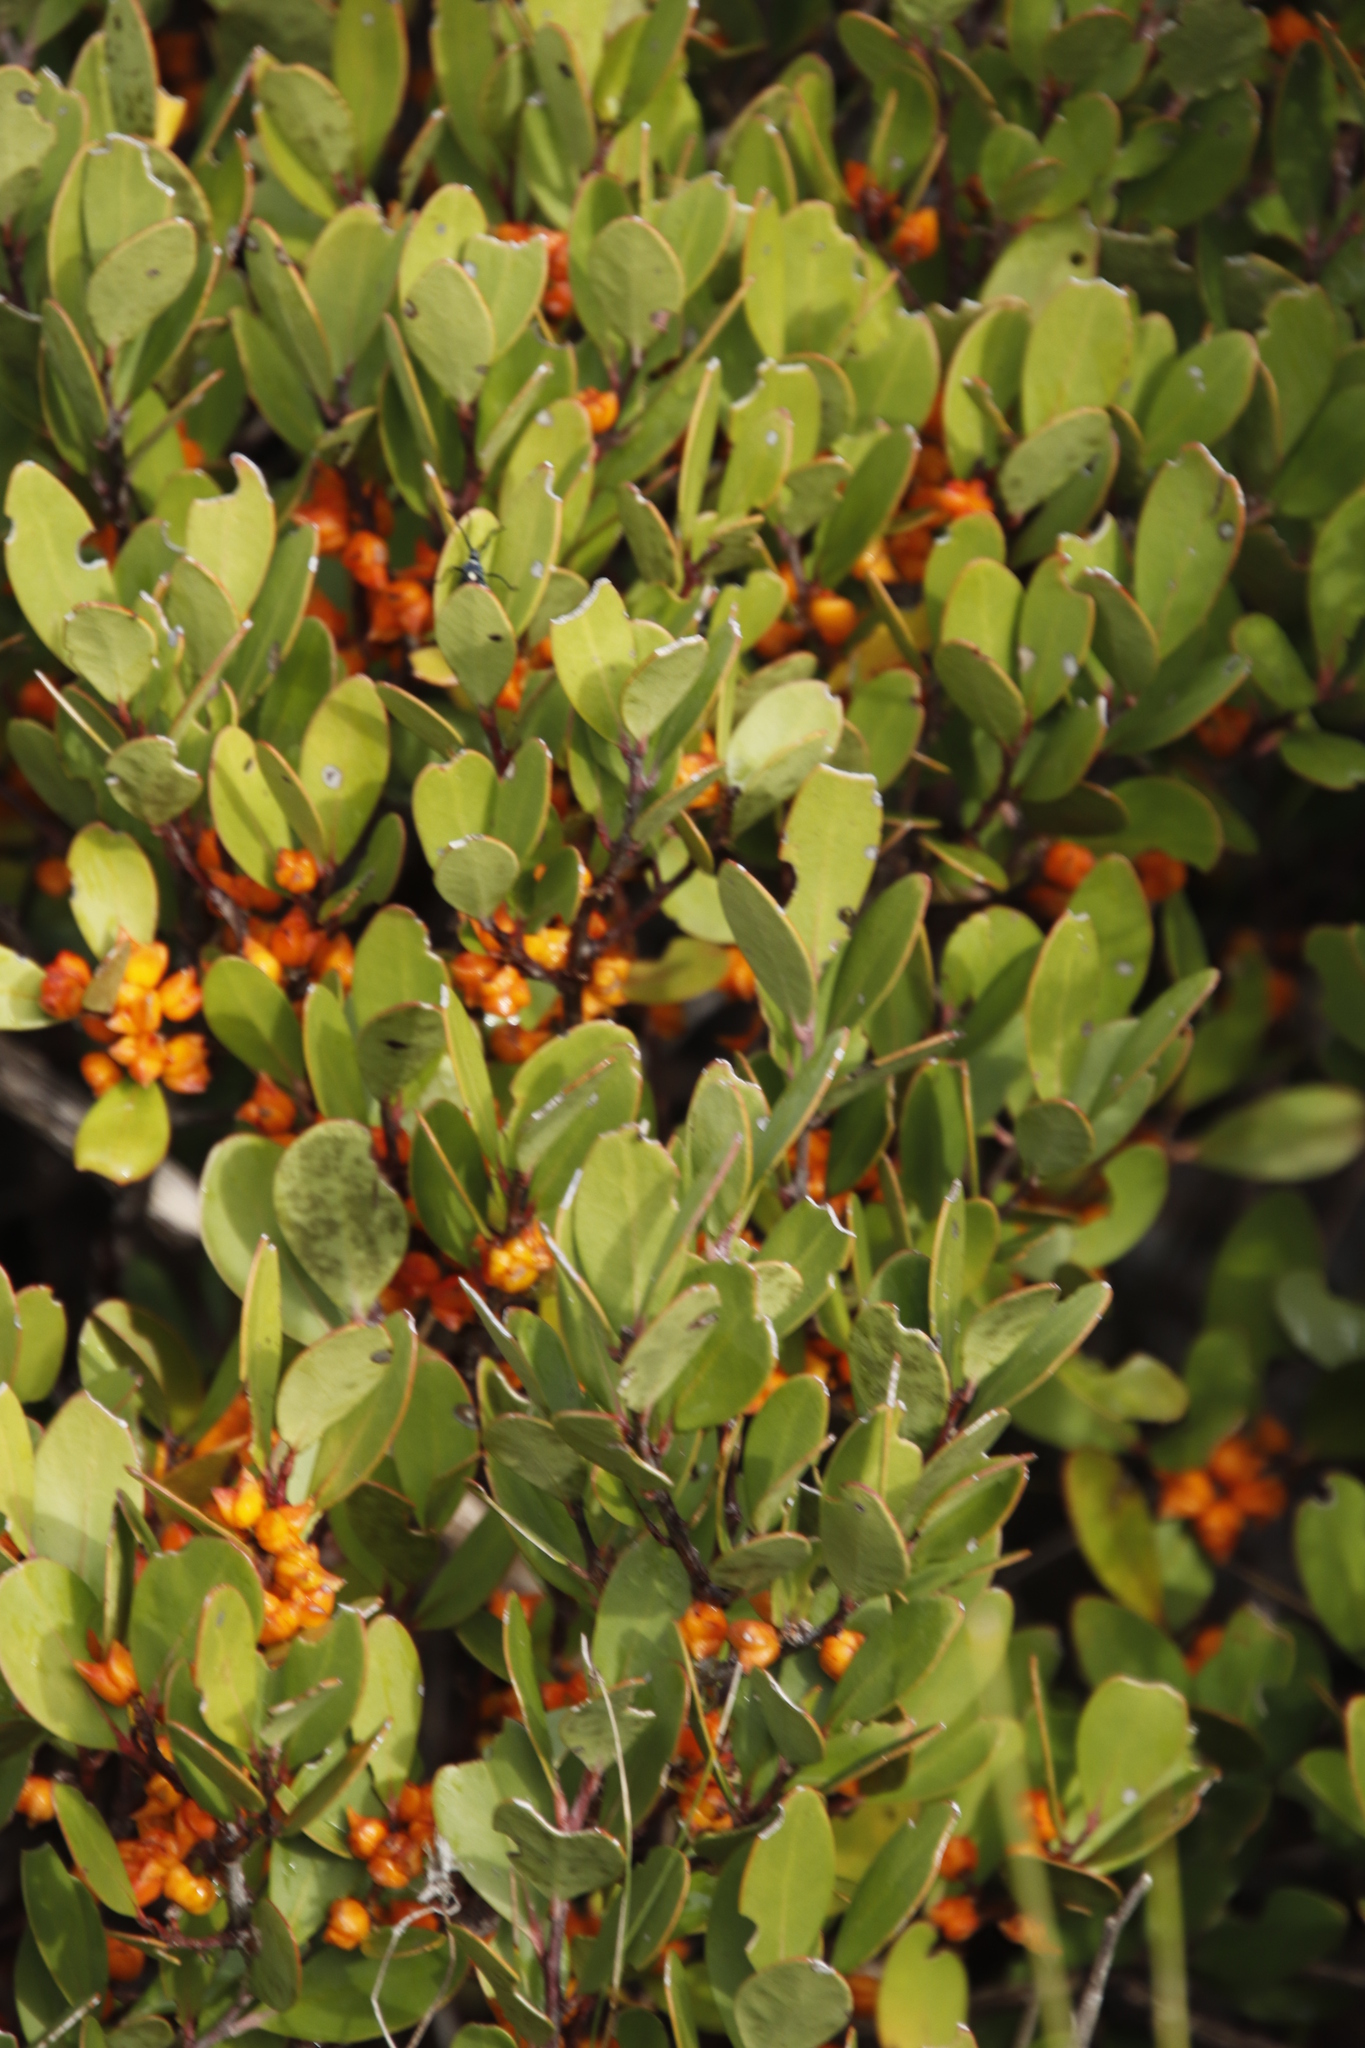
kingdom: Plantae
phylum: Tracheophyta
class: Magnoliopsida
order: Celastrales
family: Celastraceae
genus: Pterocelastrus
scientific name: Pterocelastrus tricuspidatus
